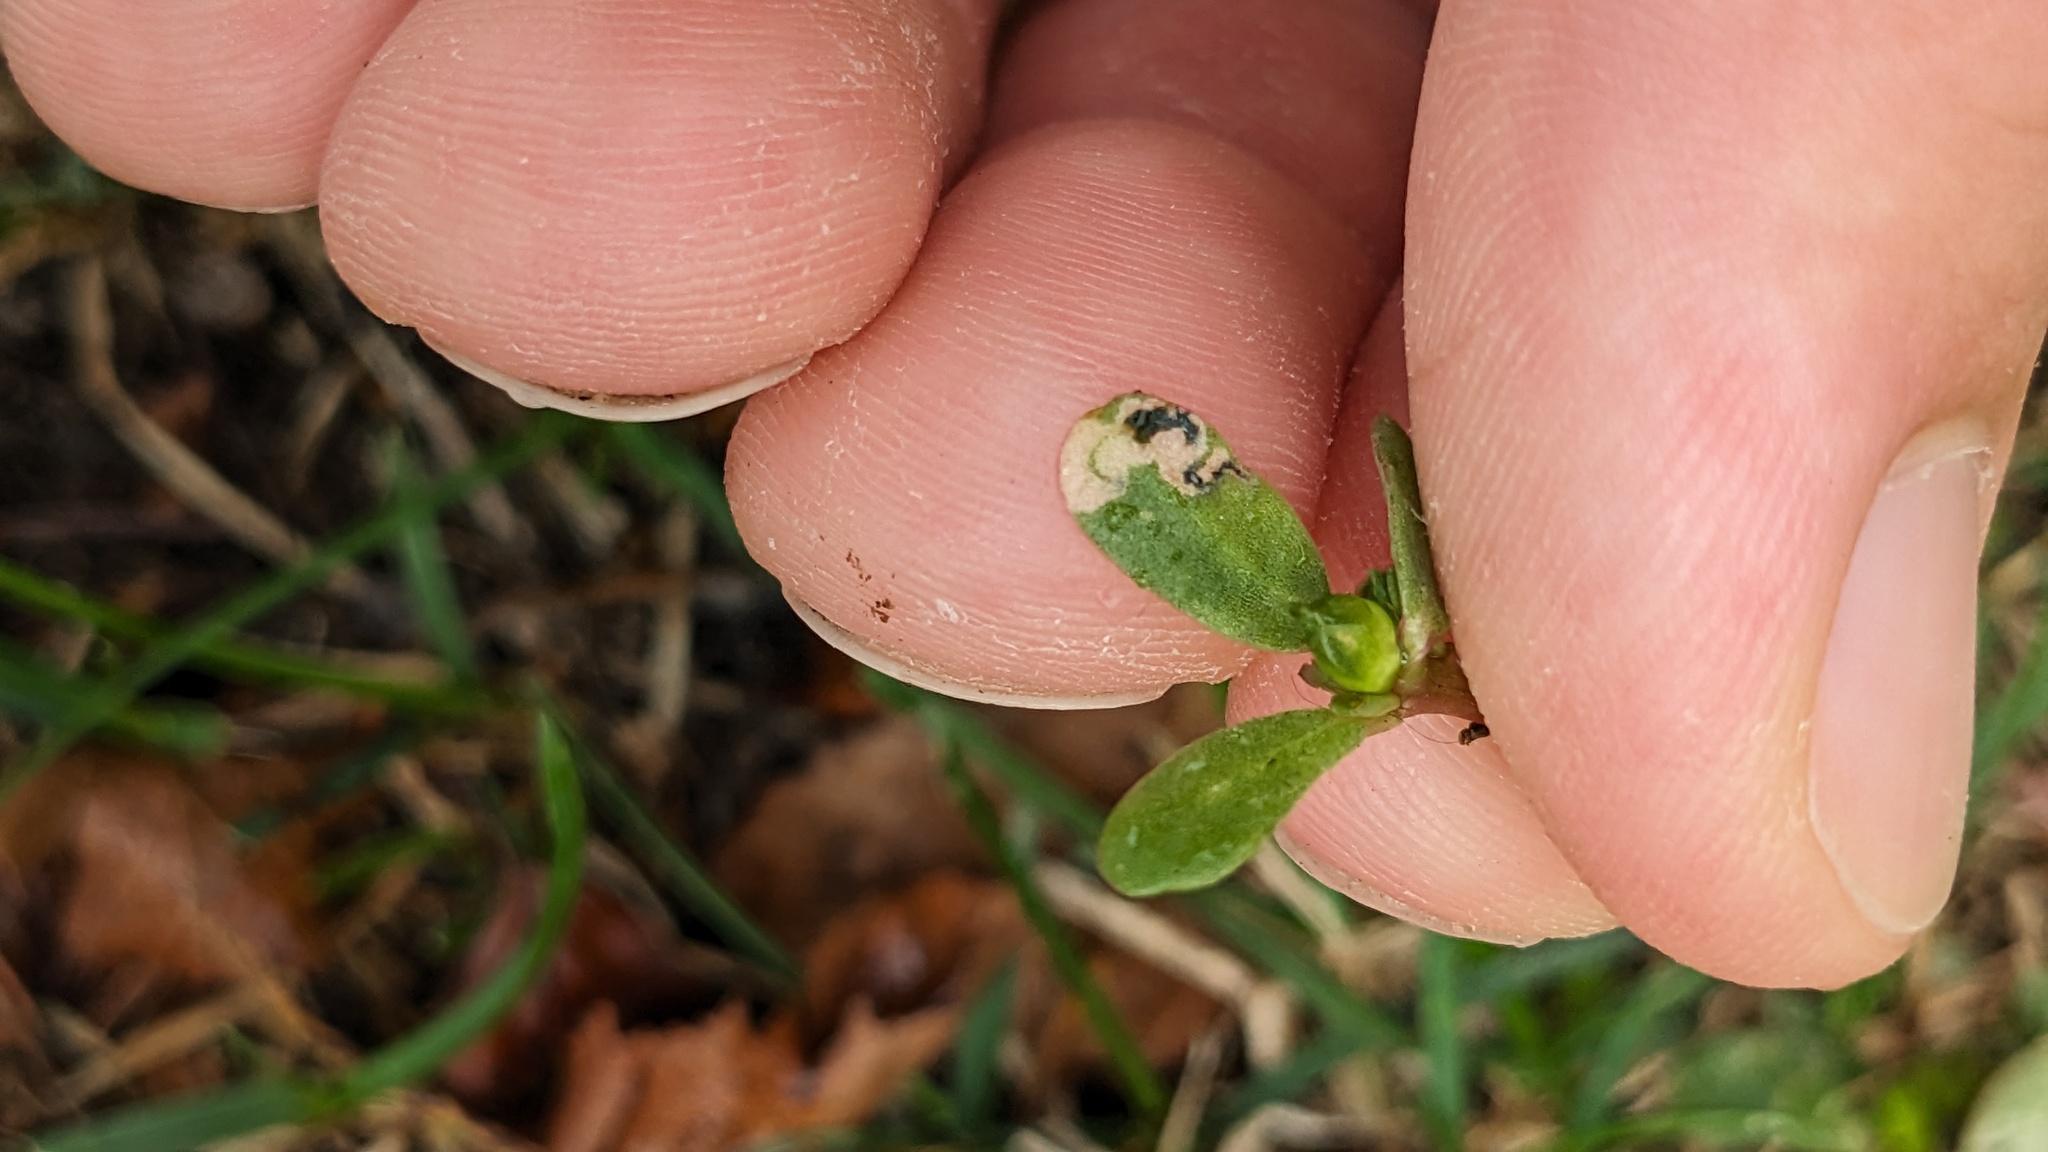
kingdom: Animalia
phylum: Arthropoda
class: Insecta
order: Hymenoptera
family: Argidae
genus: Schizocerella
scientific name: Schizocerella pilicornis
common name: Purslane sawfly
